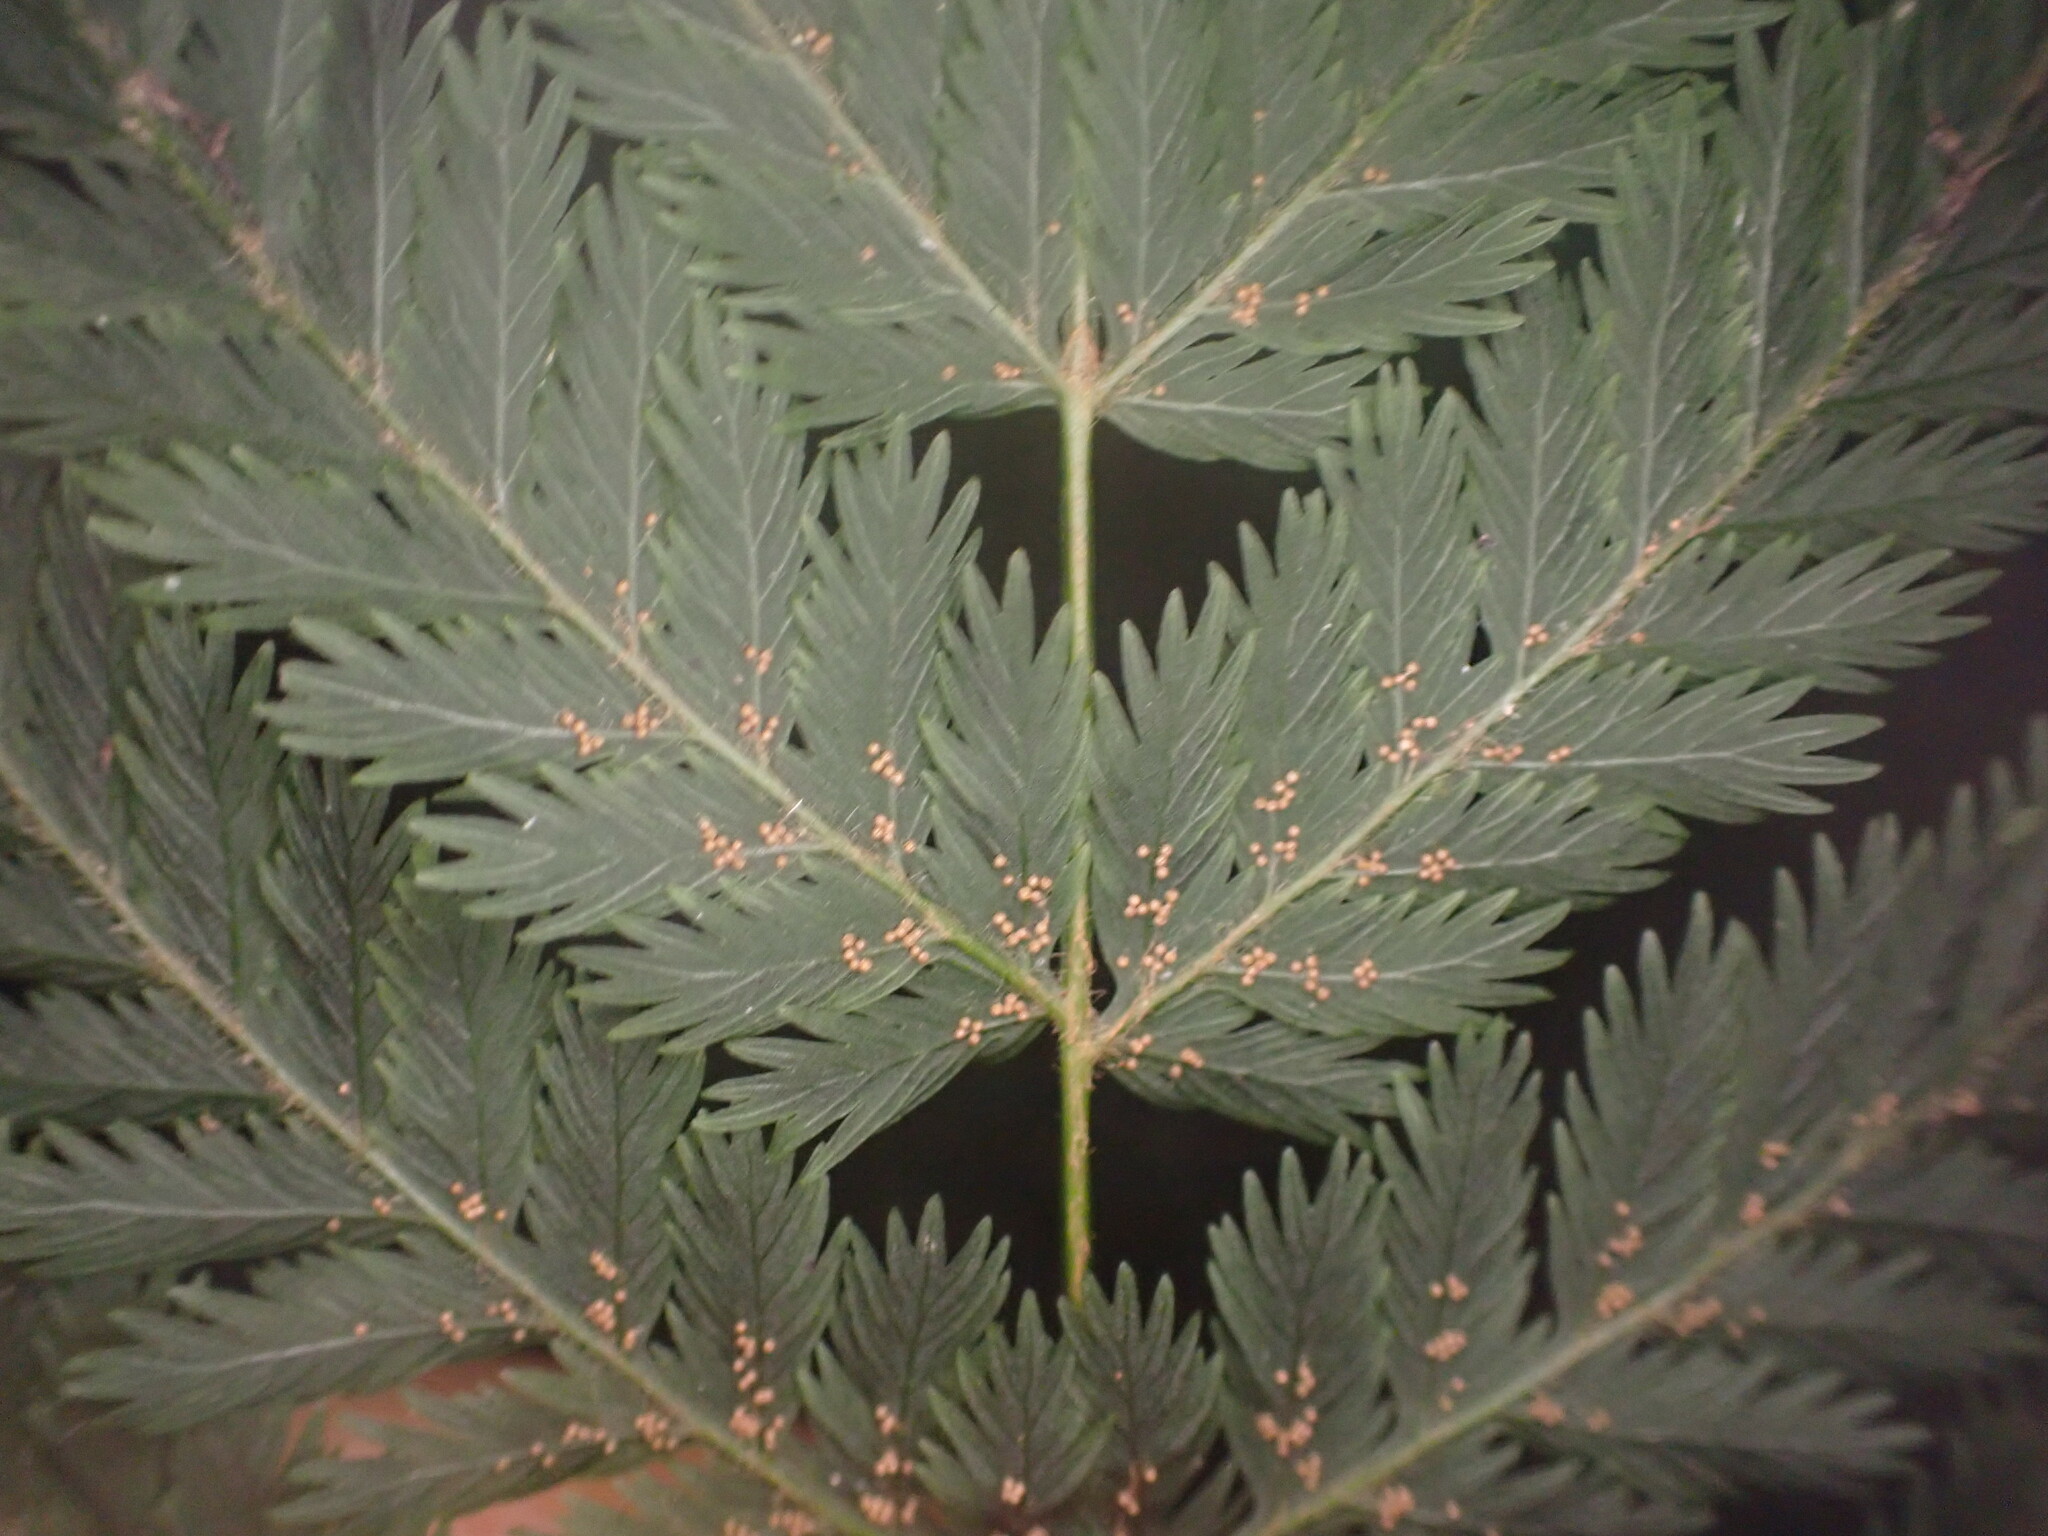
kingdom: Plantae
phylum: Tracheophyta
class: Polypodiopsida
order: Osmundales
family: Osmundaceae
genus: Leptopteris
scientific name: Leptopteris hymenophylloides
